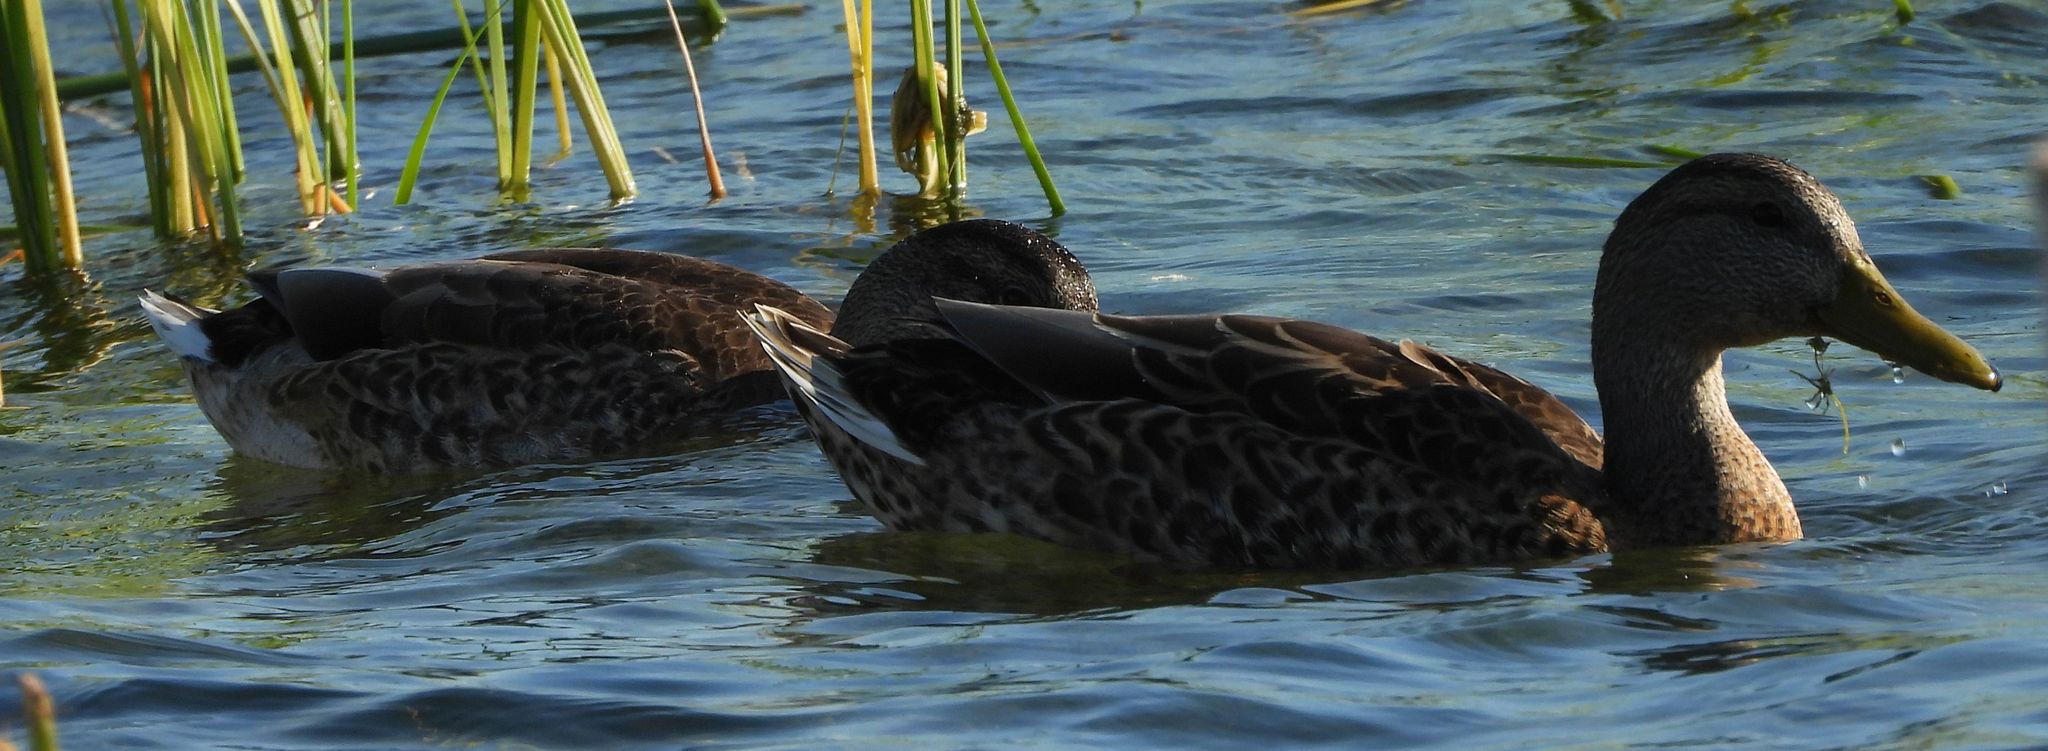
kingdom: Animalia
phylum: Chordata
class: Aves
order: Anseriformes
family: Anatidae
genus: Anas
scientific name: Anas platyrhynchos
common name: Mallard
